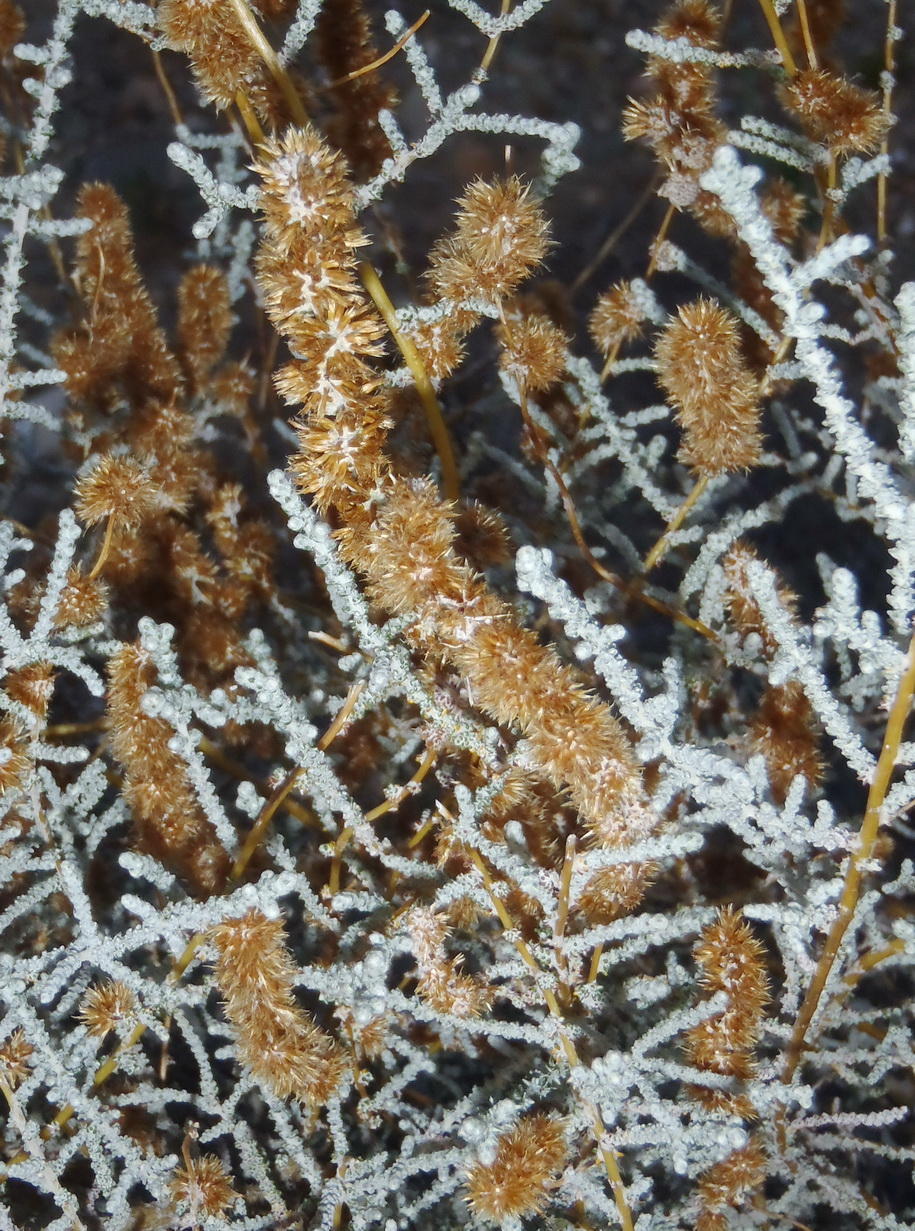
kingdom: Plantae
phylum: Tracheophyta
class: Magnoliopsida
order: Asterales
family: Asteraceae
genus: Seriphium
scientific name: Seriphium plumosum
